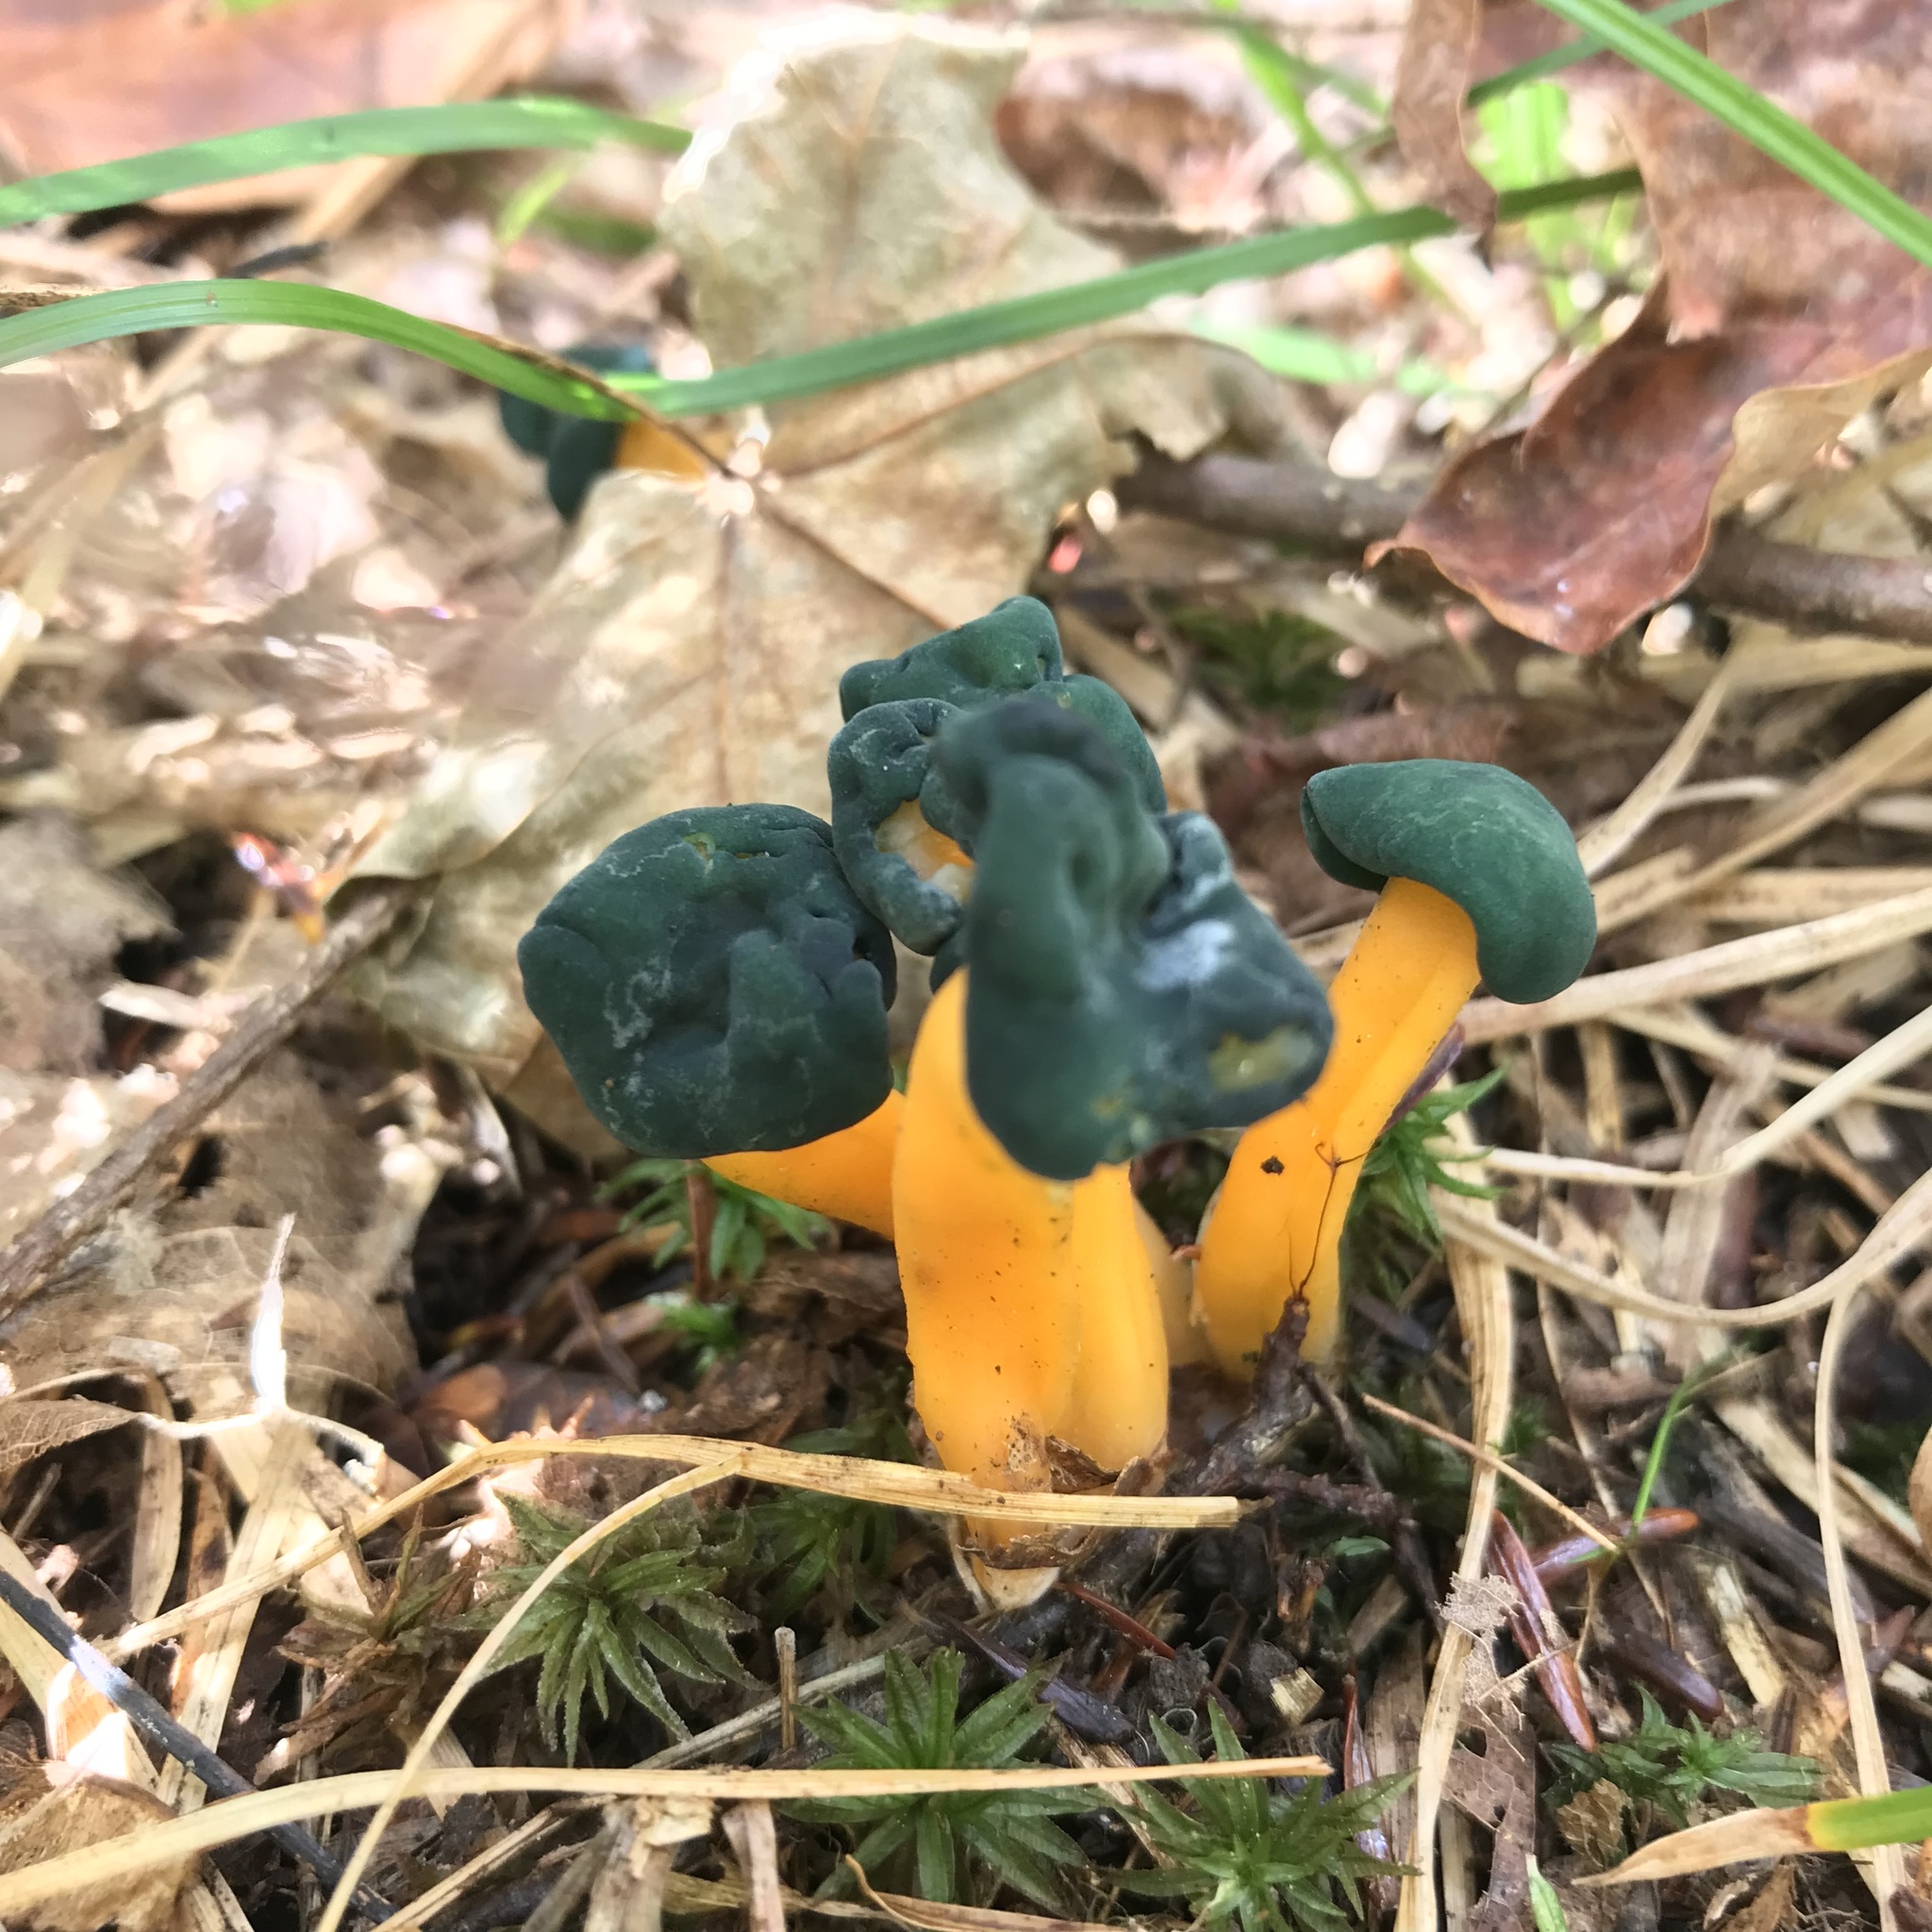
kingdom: Fungi
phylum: Ascomycota
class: Leotiomycetes
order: Leotiales
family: Leotiaceae
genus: Leotia
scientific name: Leotia lubrica
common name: Jellybaby
